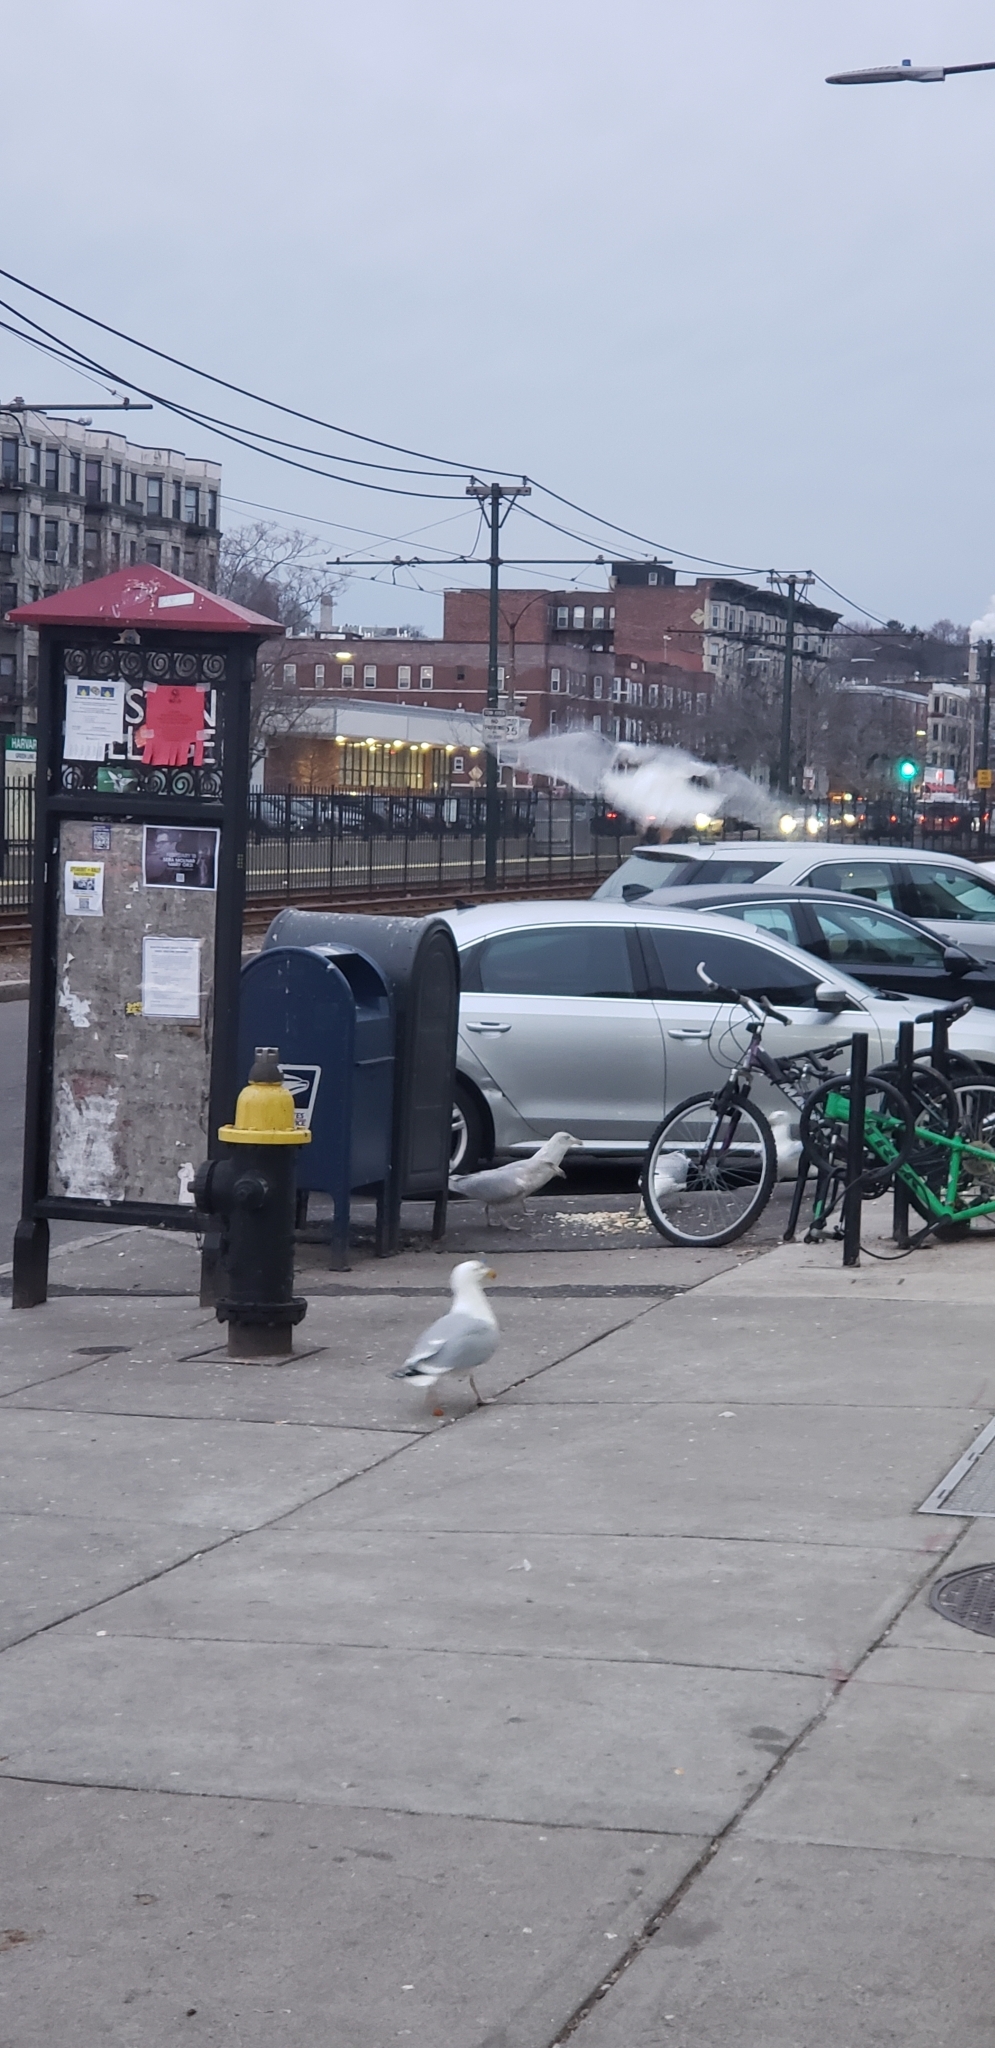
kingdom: Animalia
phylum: Chordata
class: Aves
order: Charadriiformes
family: Laridae
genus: Larus
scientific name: Larus argentatus
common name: Herring gull
